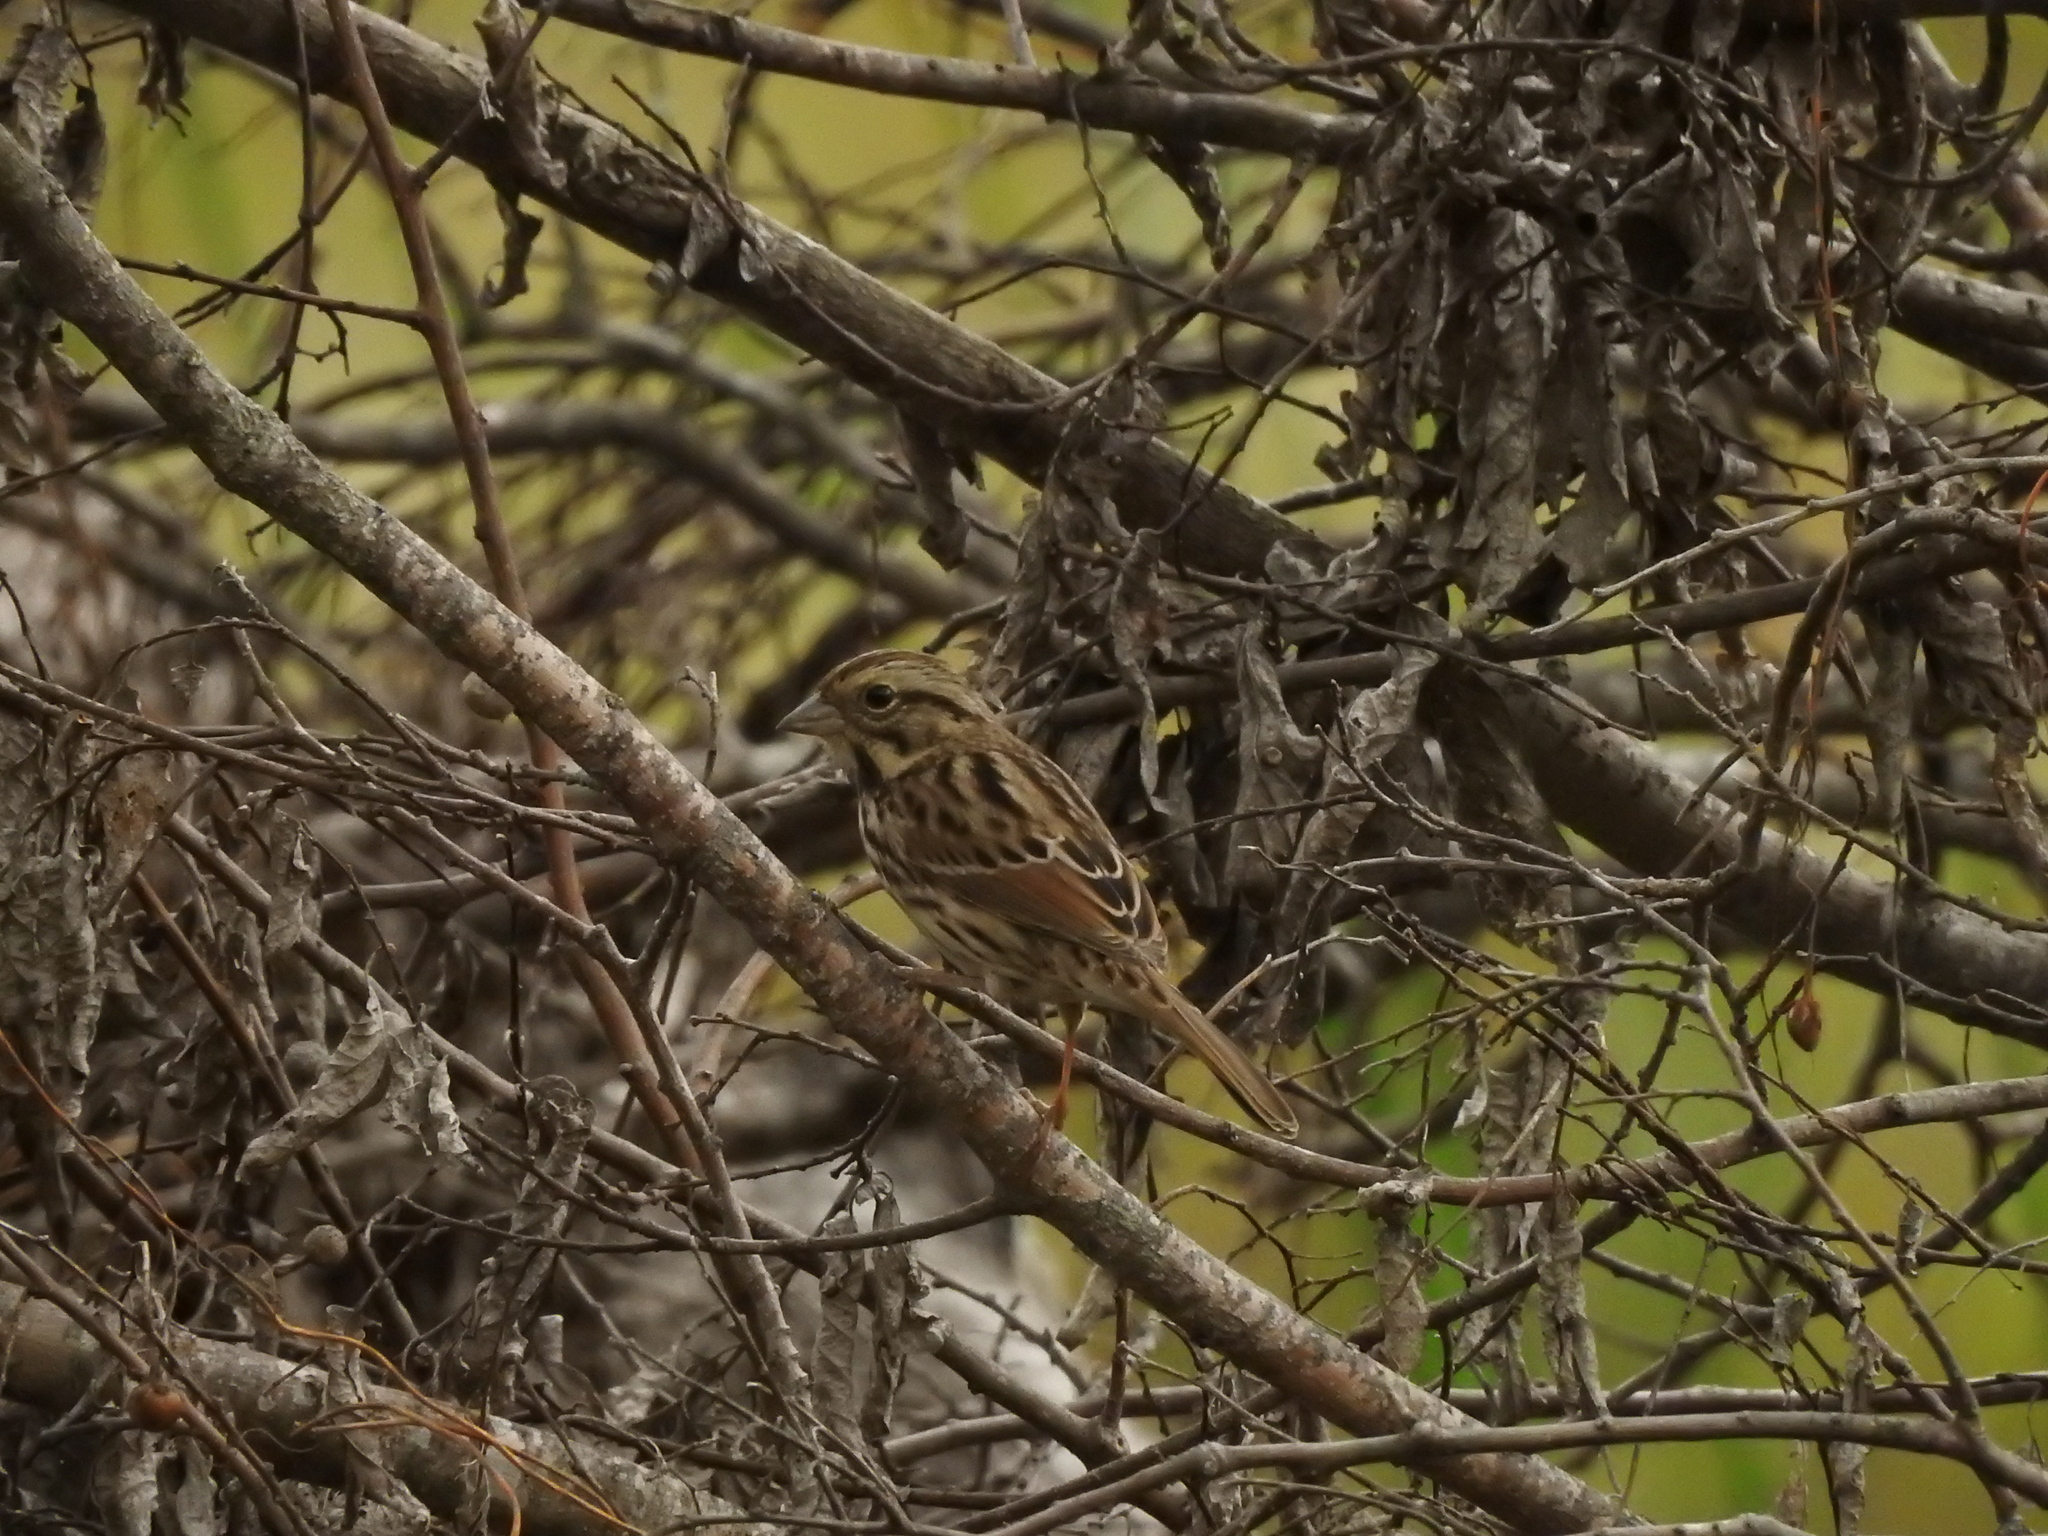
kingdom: Animalia
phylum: Chordata
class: Aves
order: Passeriformes
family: Passerellidae
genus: Melospiza
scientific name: Melospiza melodia
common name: Song sparrow
